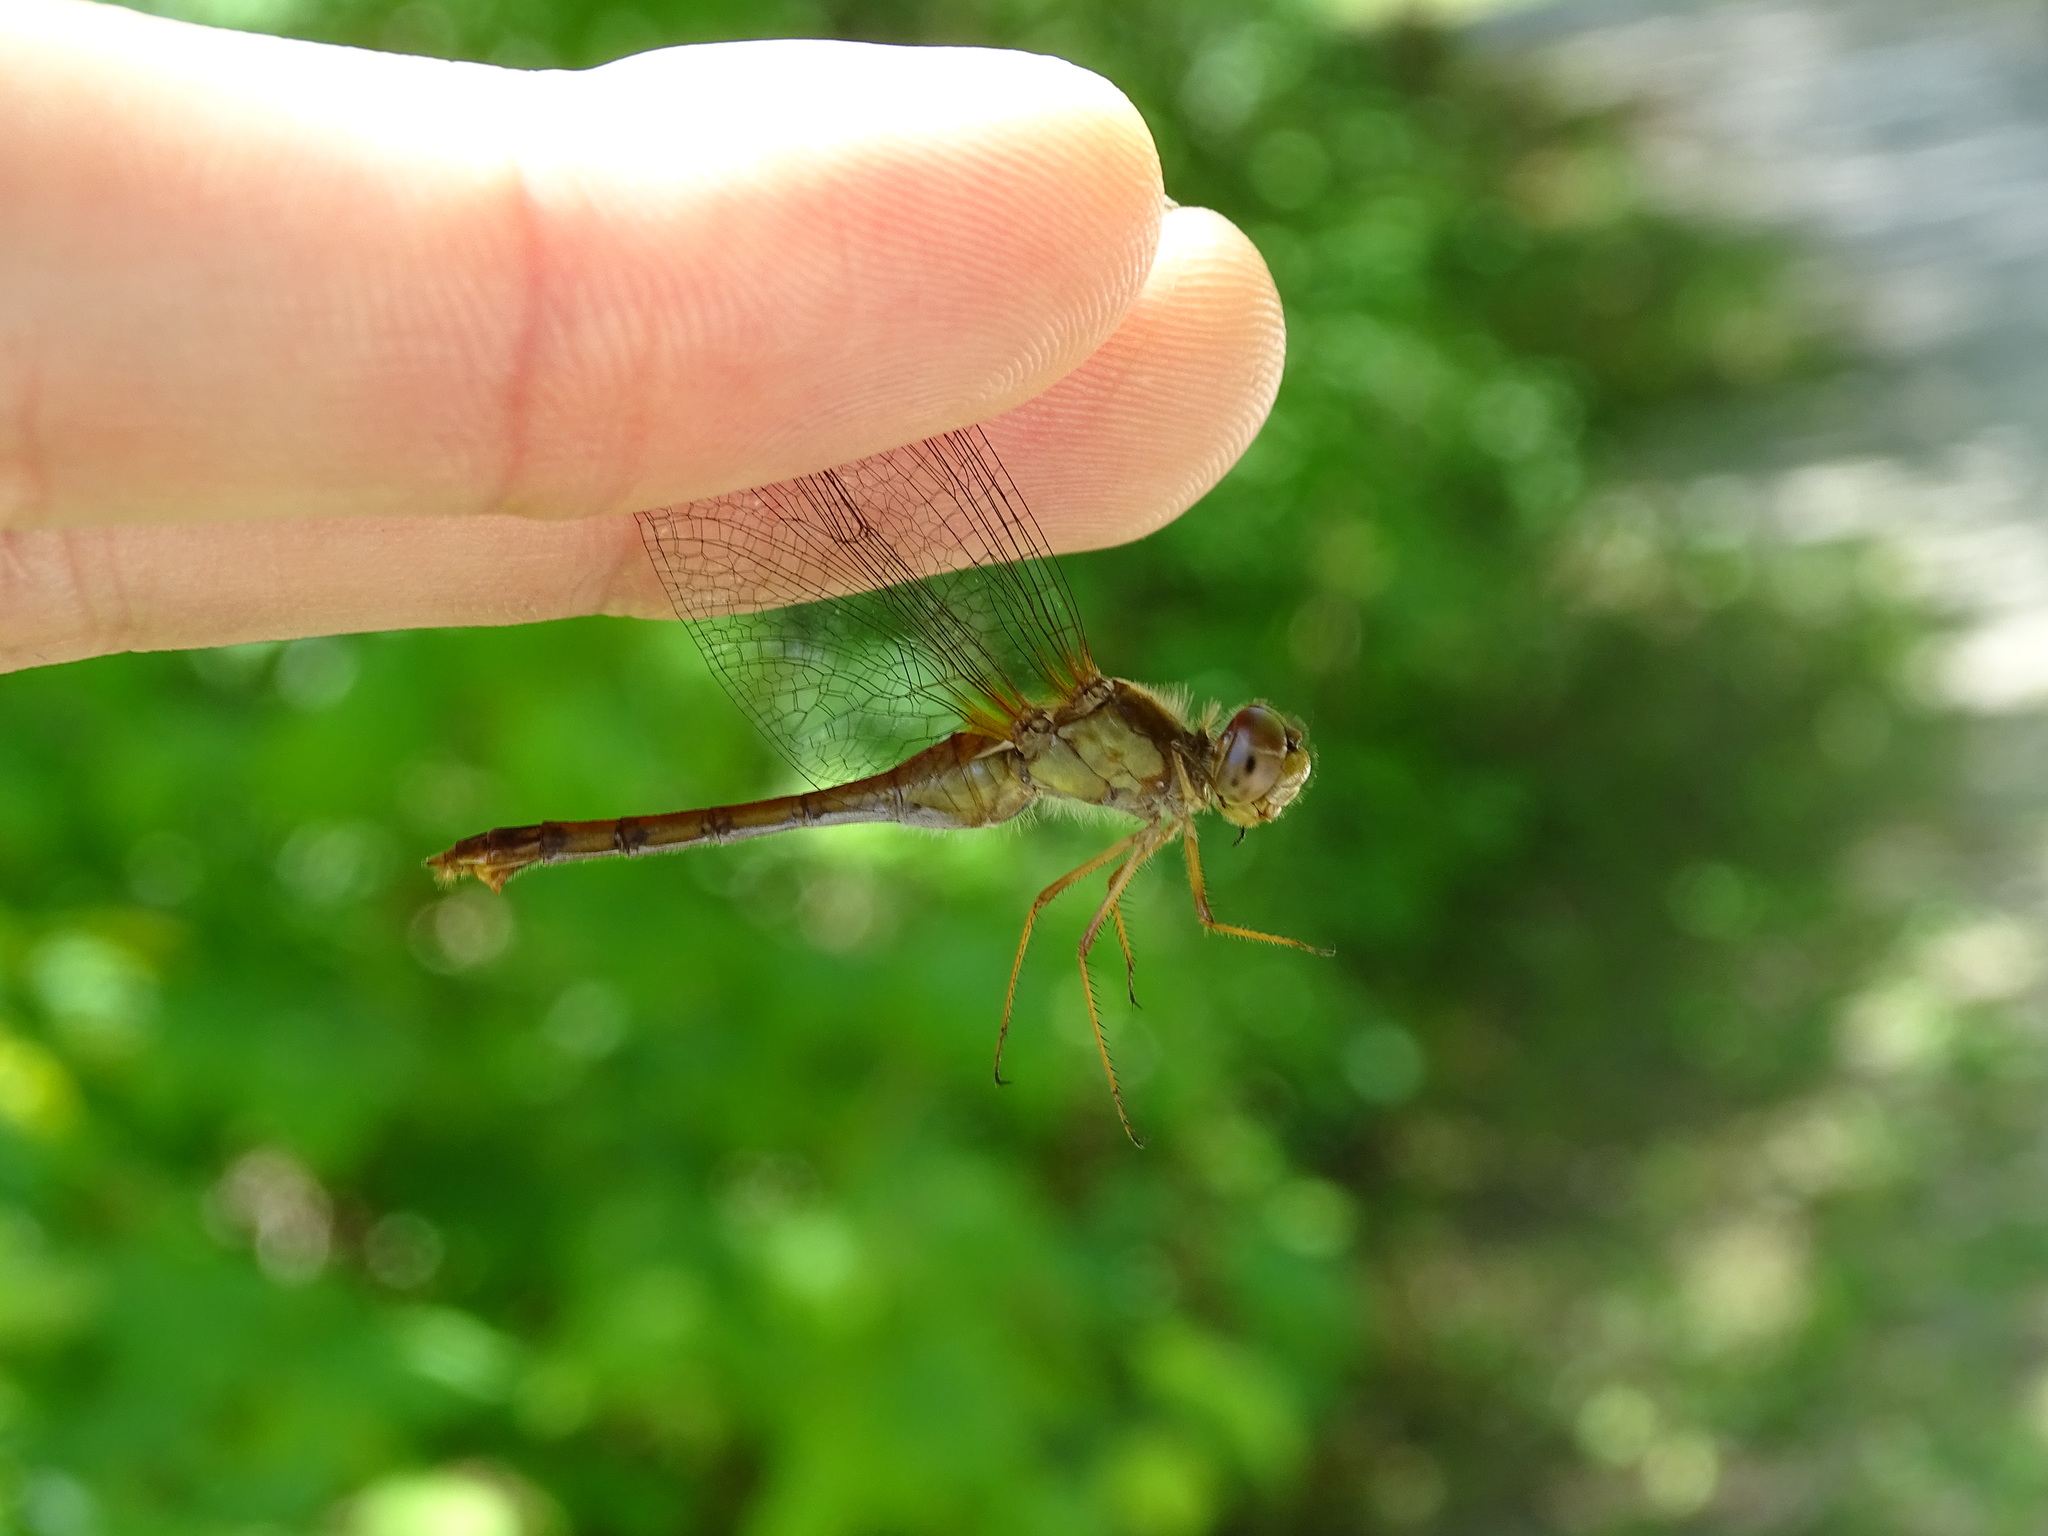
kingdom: Animalia
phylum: Arthropoda
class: Insecta
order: Odonata
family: Libellulidae
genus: Sympetrum
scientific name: Sympetrum vicinum
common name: Autumn meadowhawk
